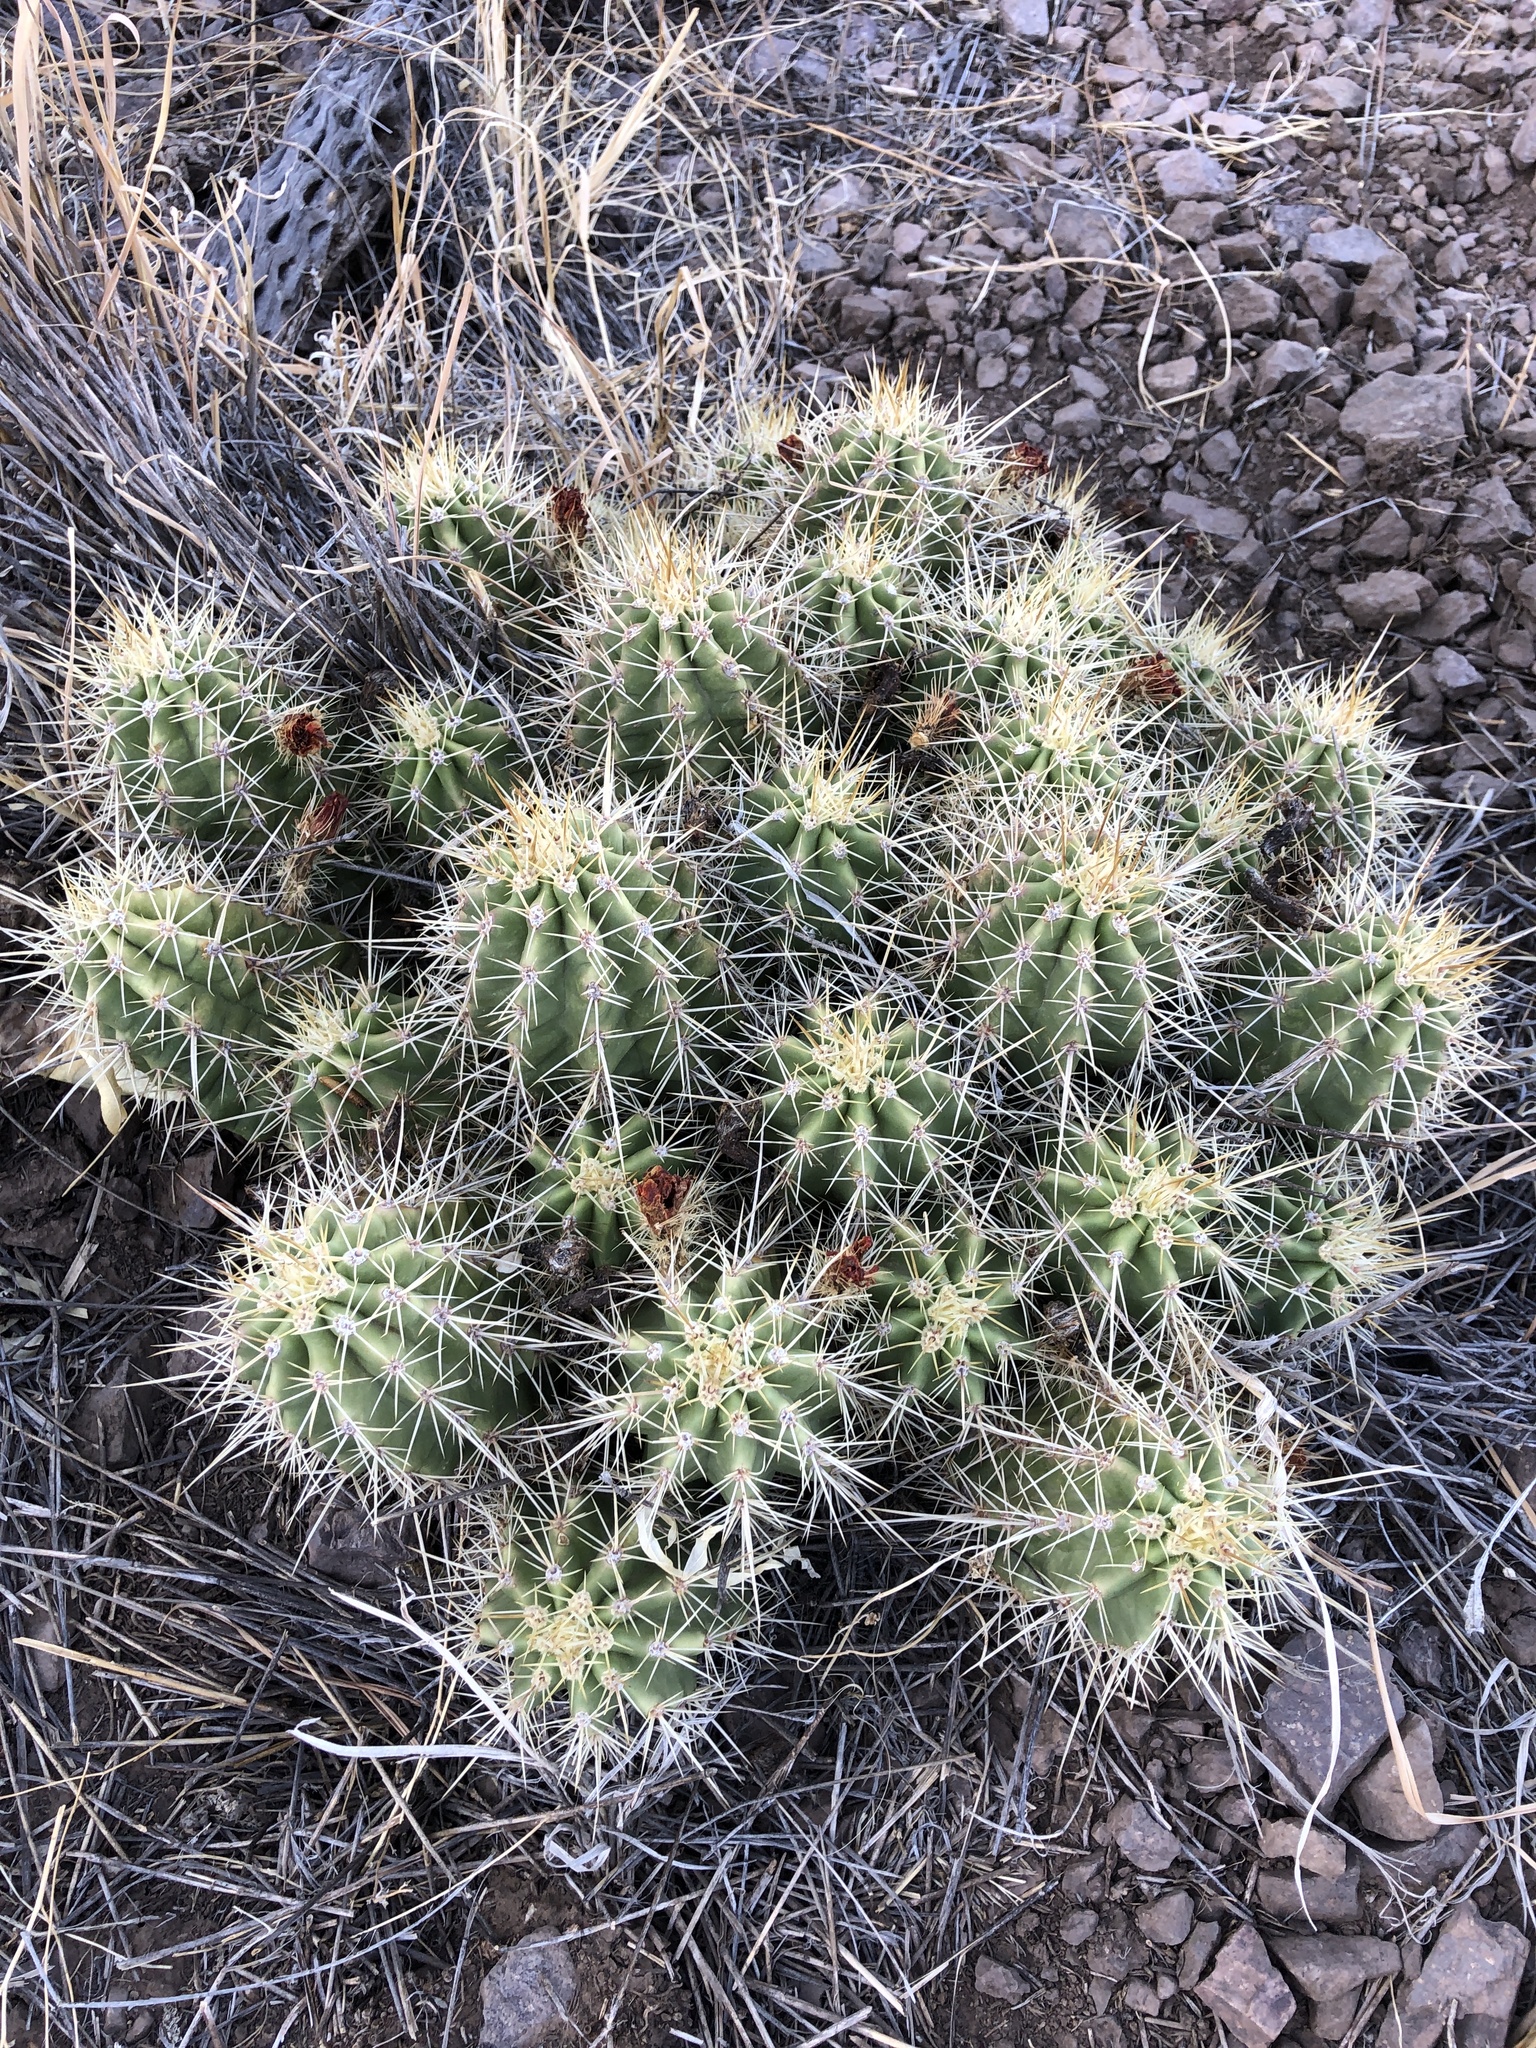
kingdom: Plantae
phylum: Tracheophyta
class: Magnoliopsida
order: Caryophyllales
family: Cactaceae
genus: Echinocereus
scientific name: Echinocereus coccineus
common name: Scarlet hedgehog cactus
